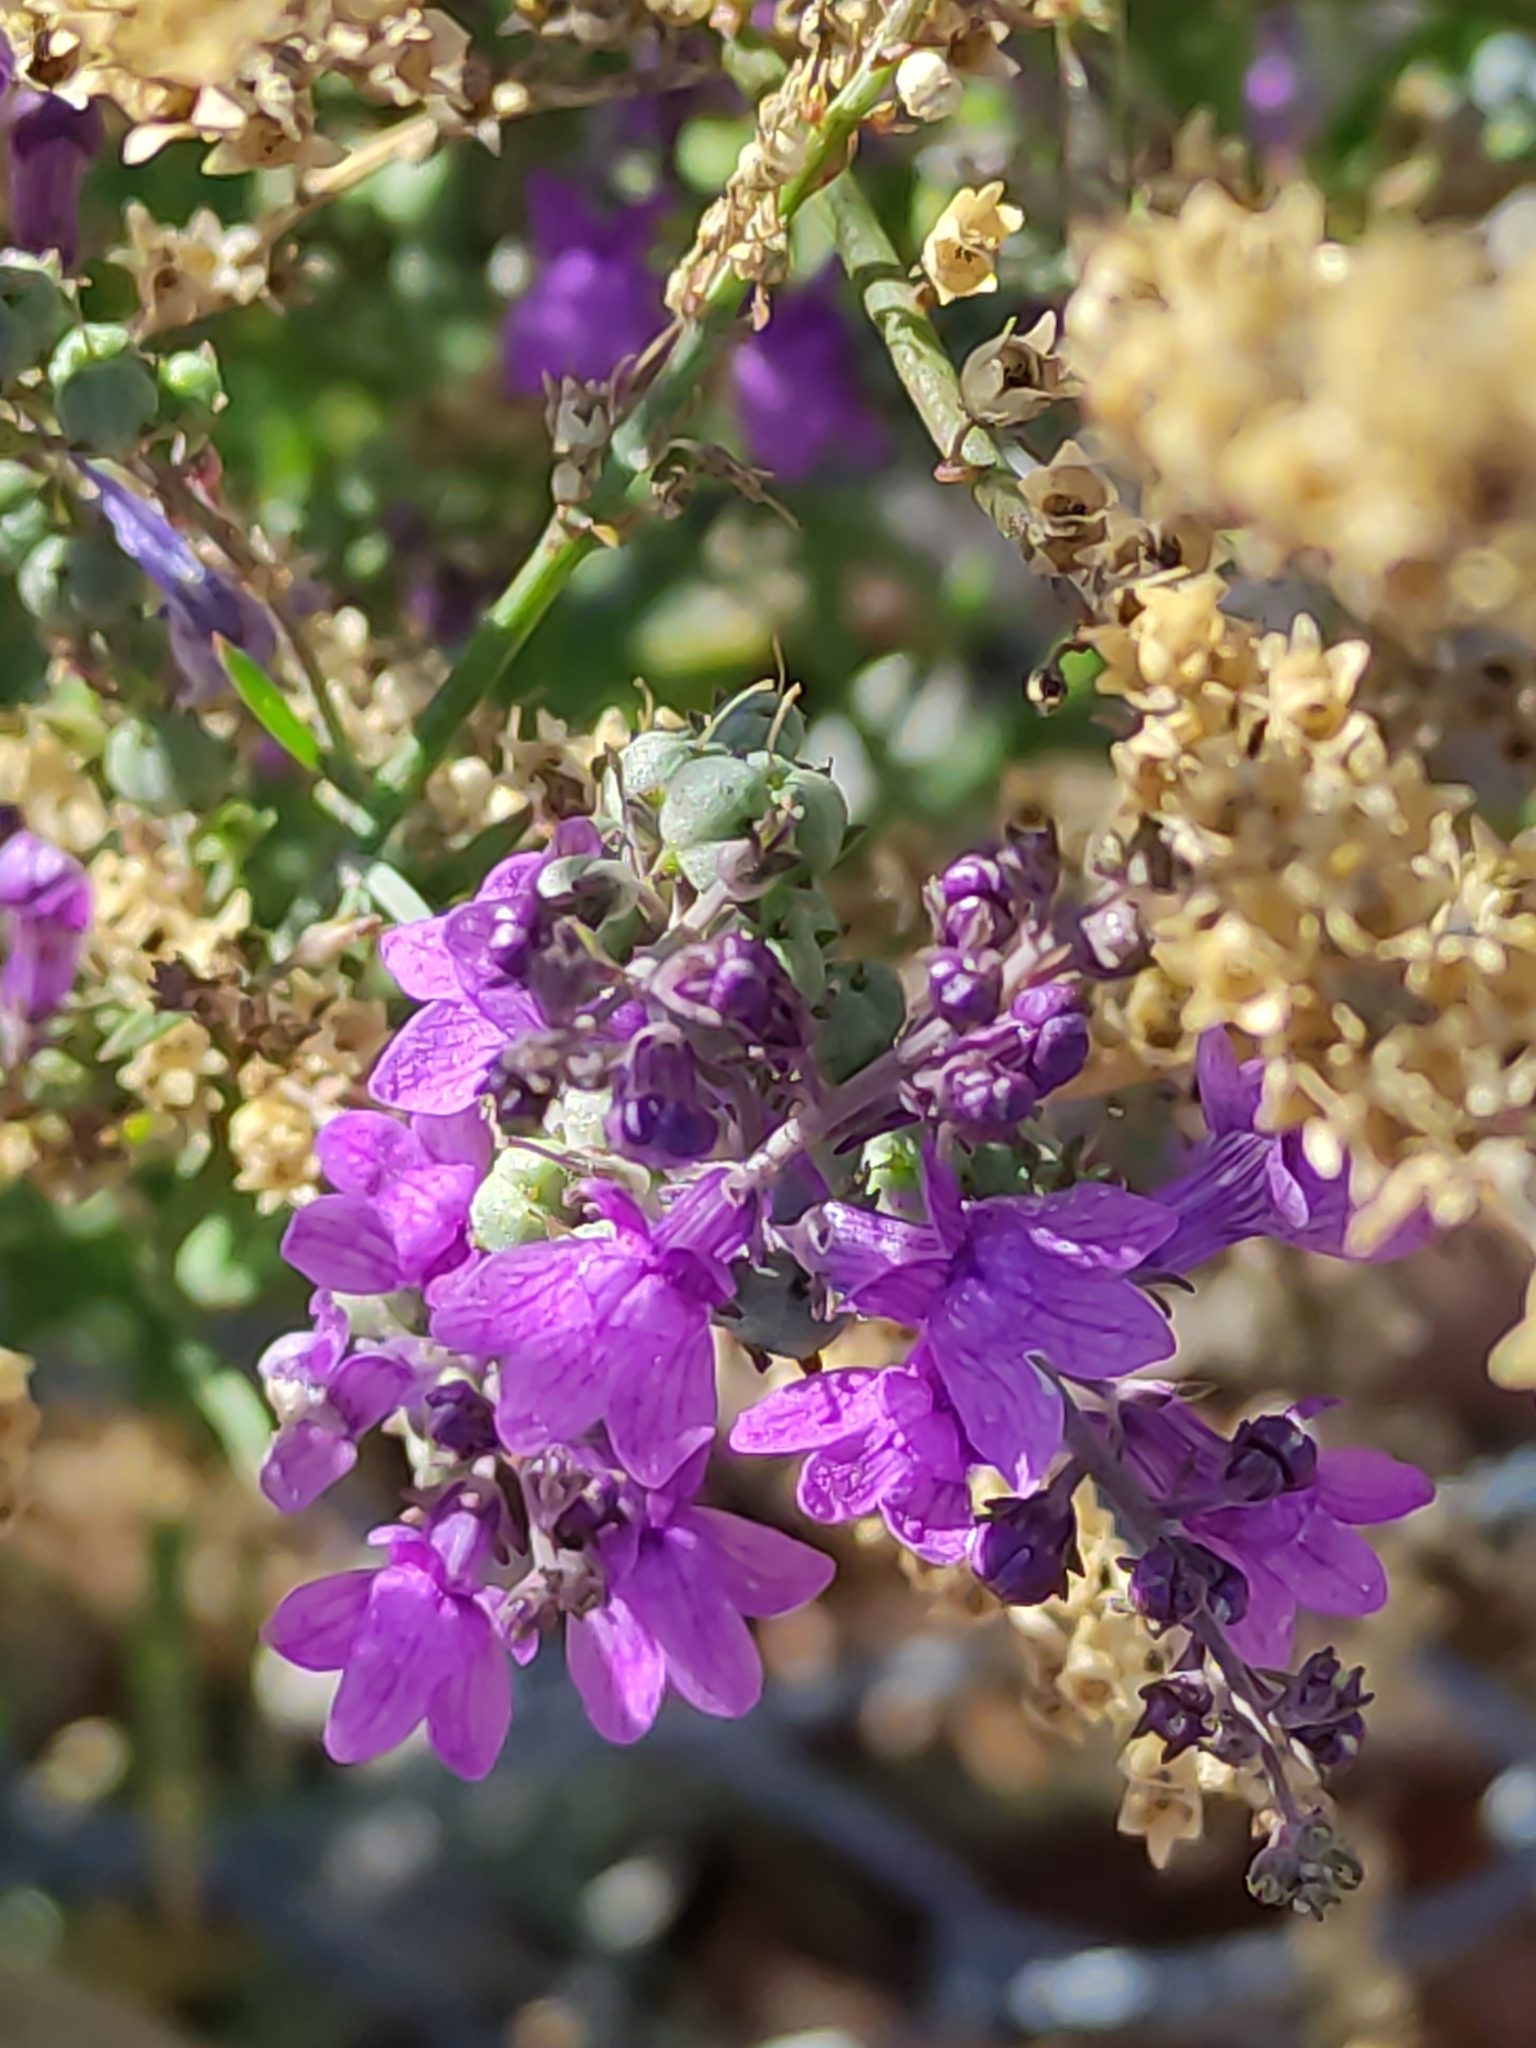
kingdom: Plantae
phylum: Tracheophyta
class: Magnoliopsida
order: Lamiales
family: Plantaginaceae
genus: Linaria
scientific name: Linaria purpurea
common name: Purple toadflax
